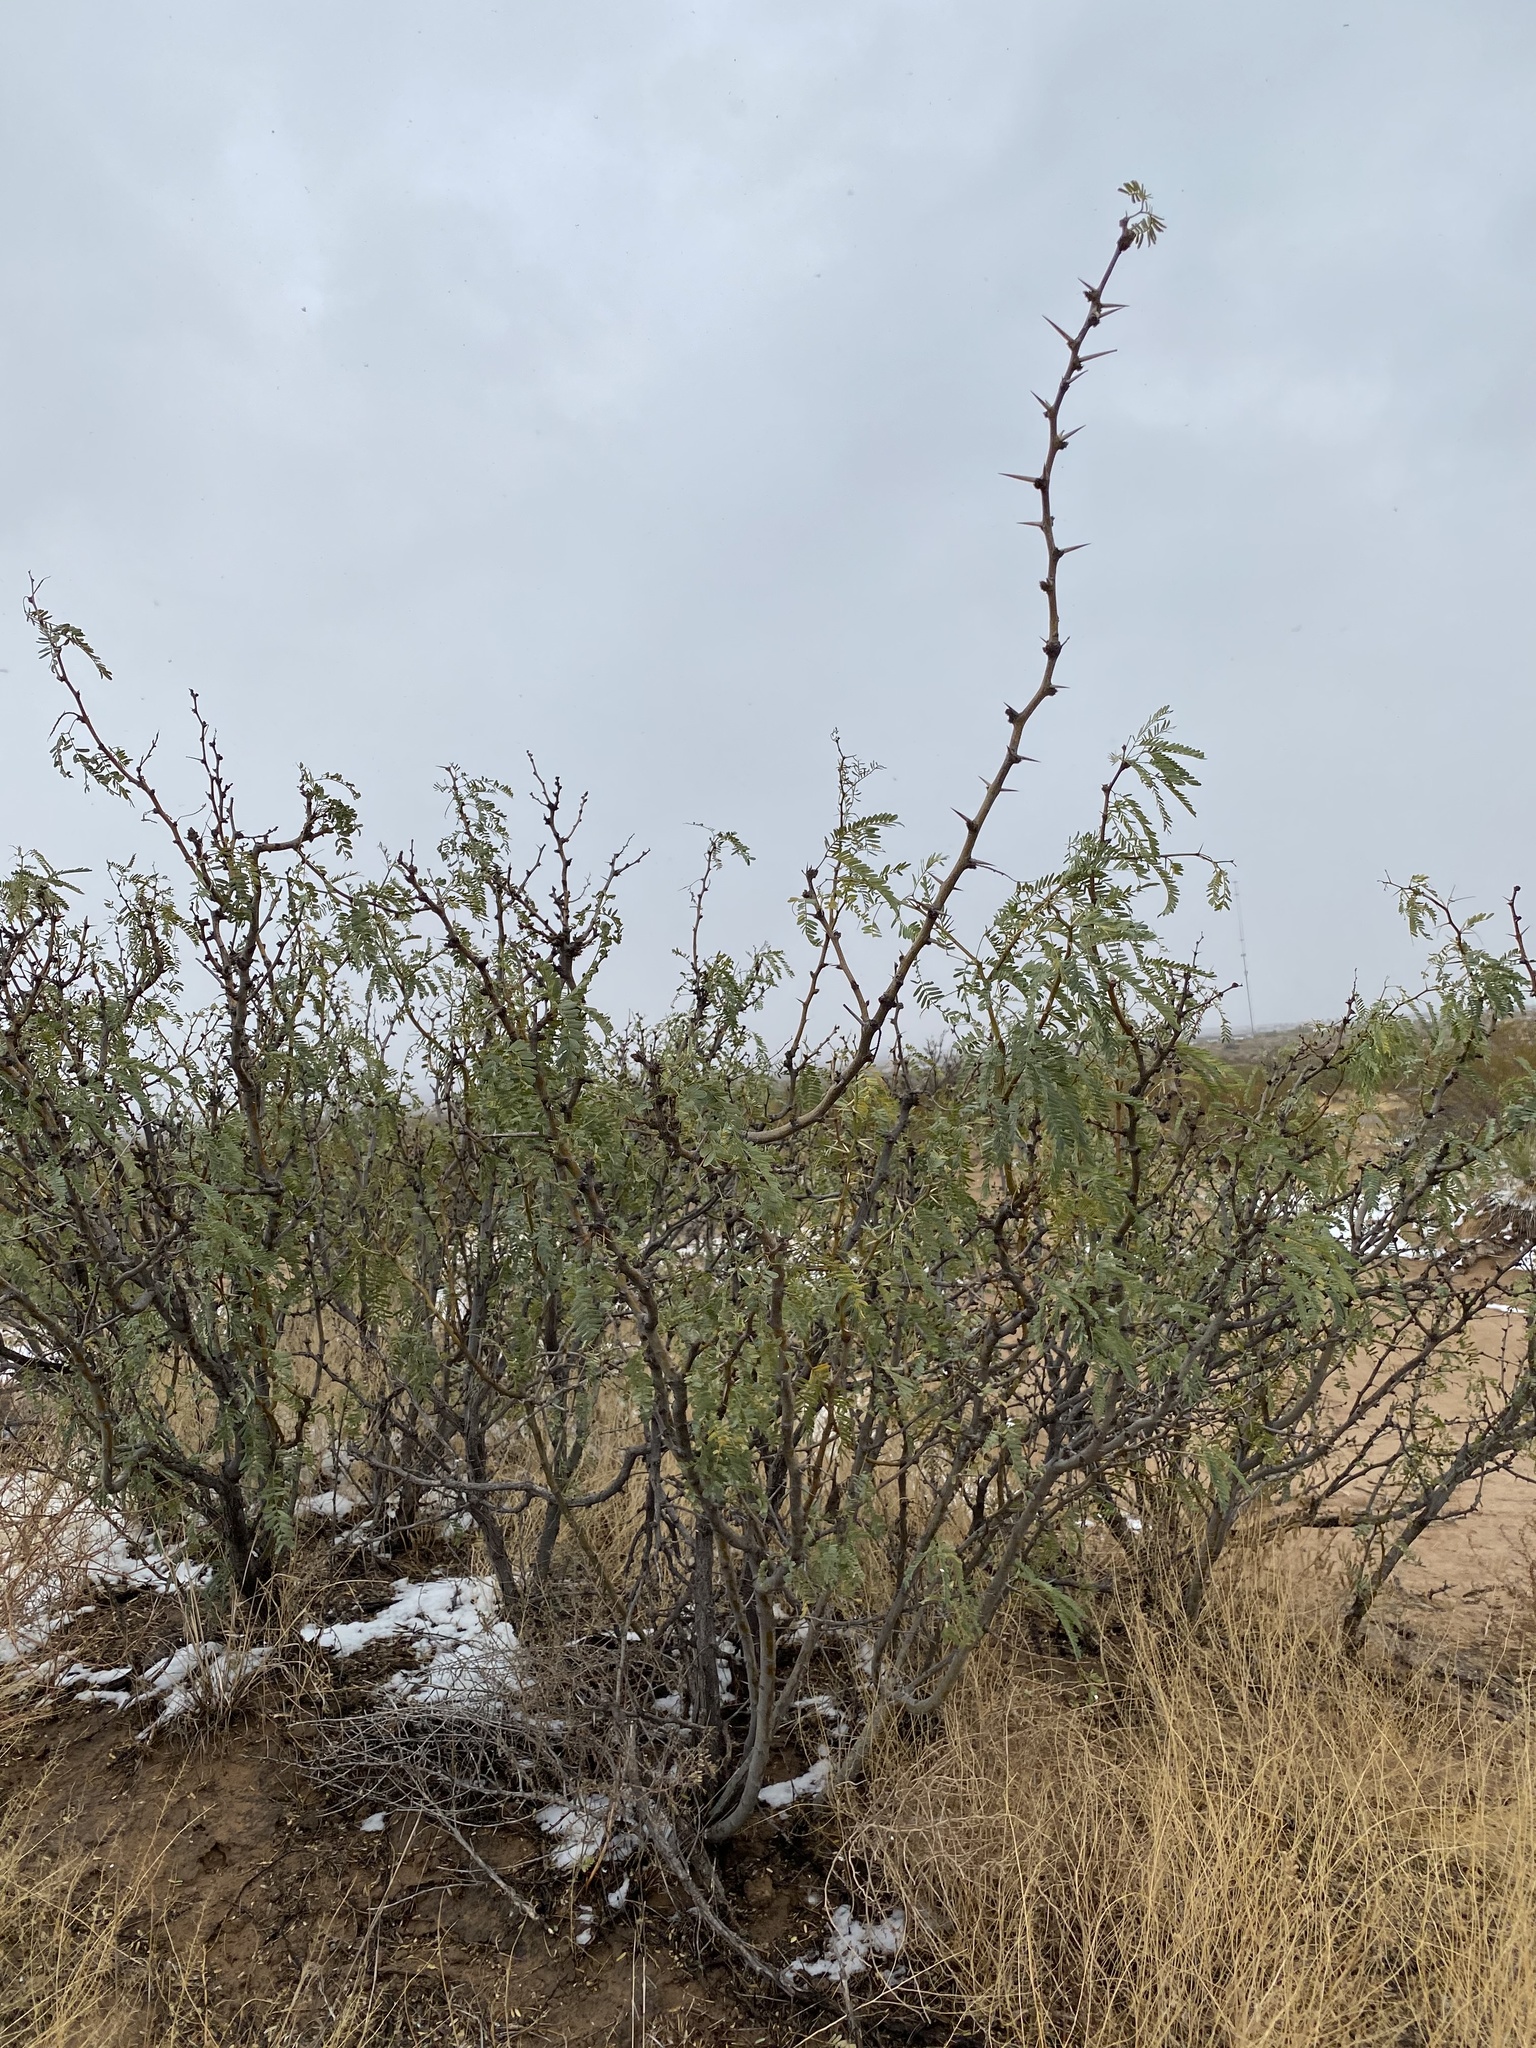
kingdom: Plantae
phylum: Tracheophyta
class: Magnoliopsida
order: Fabales
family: Fabaceae
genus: Prosopis
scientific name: Prosopis glandulosa
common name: Honey mesquite
